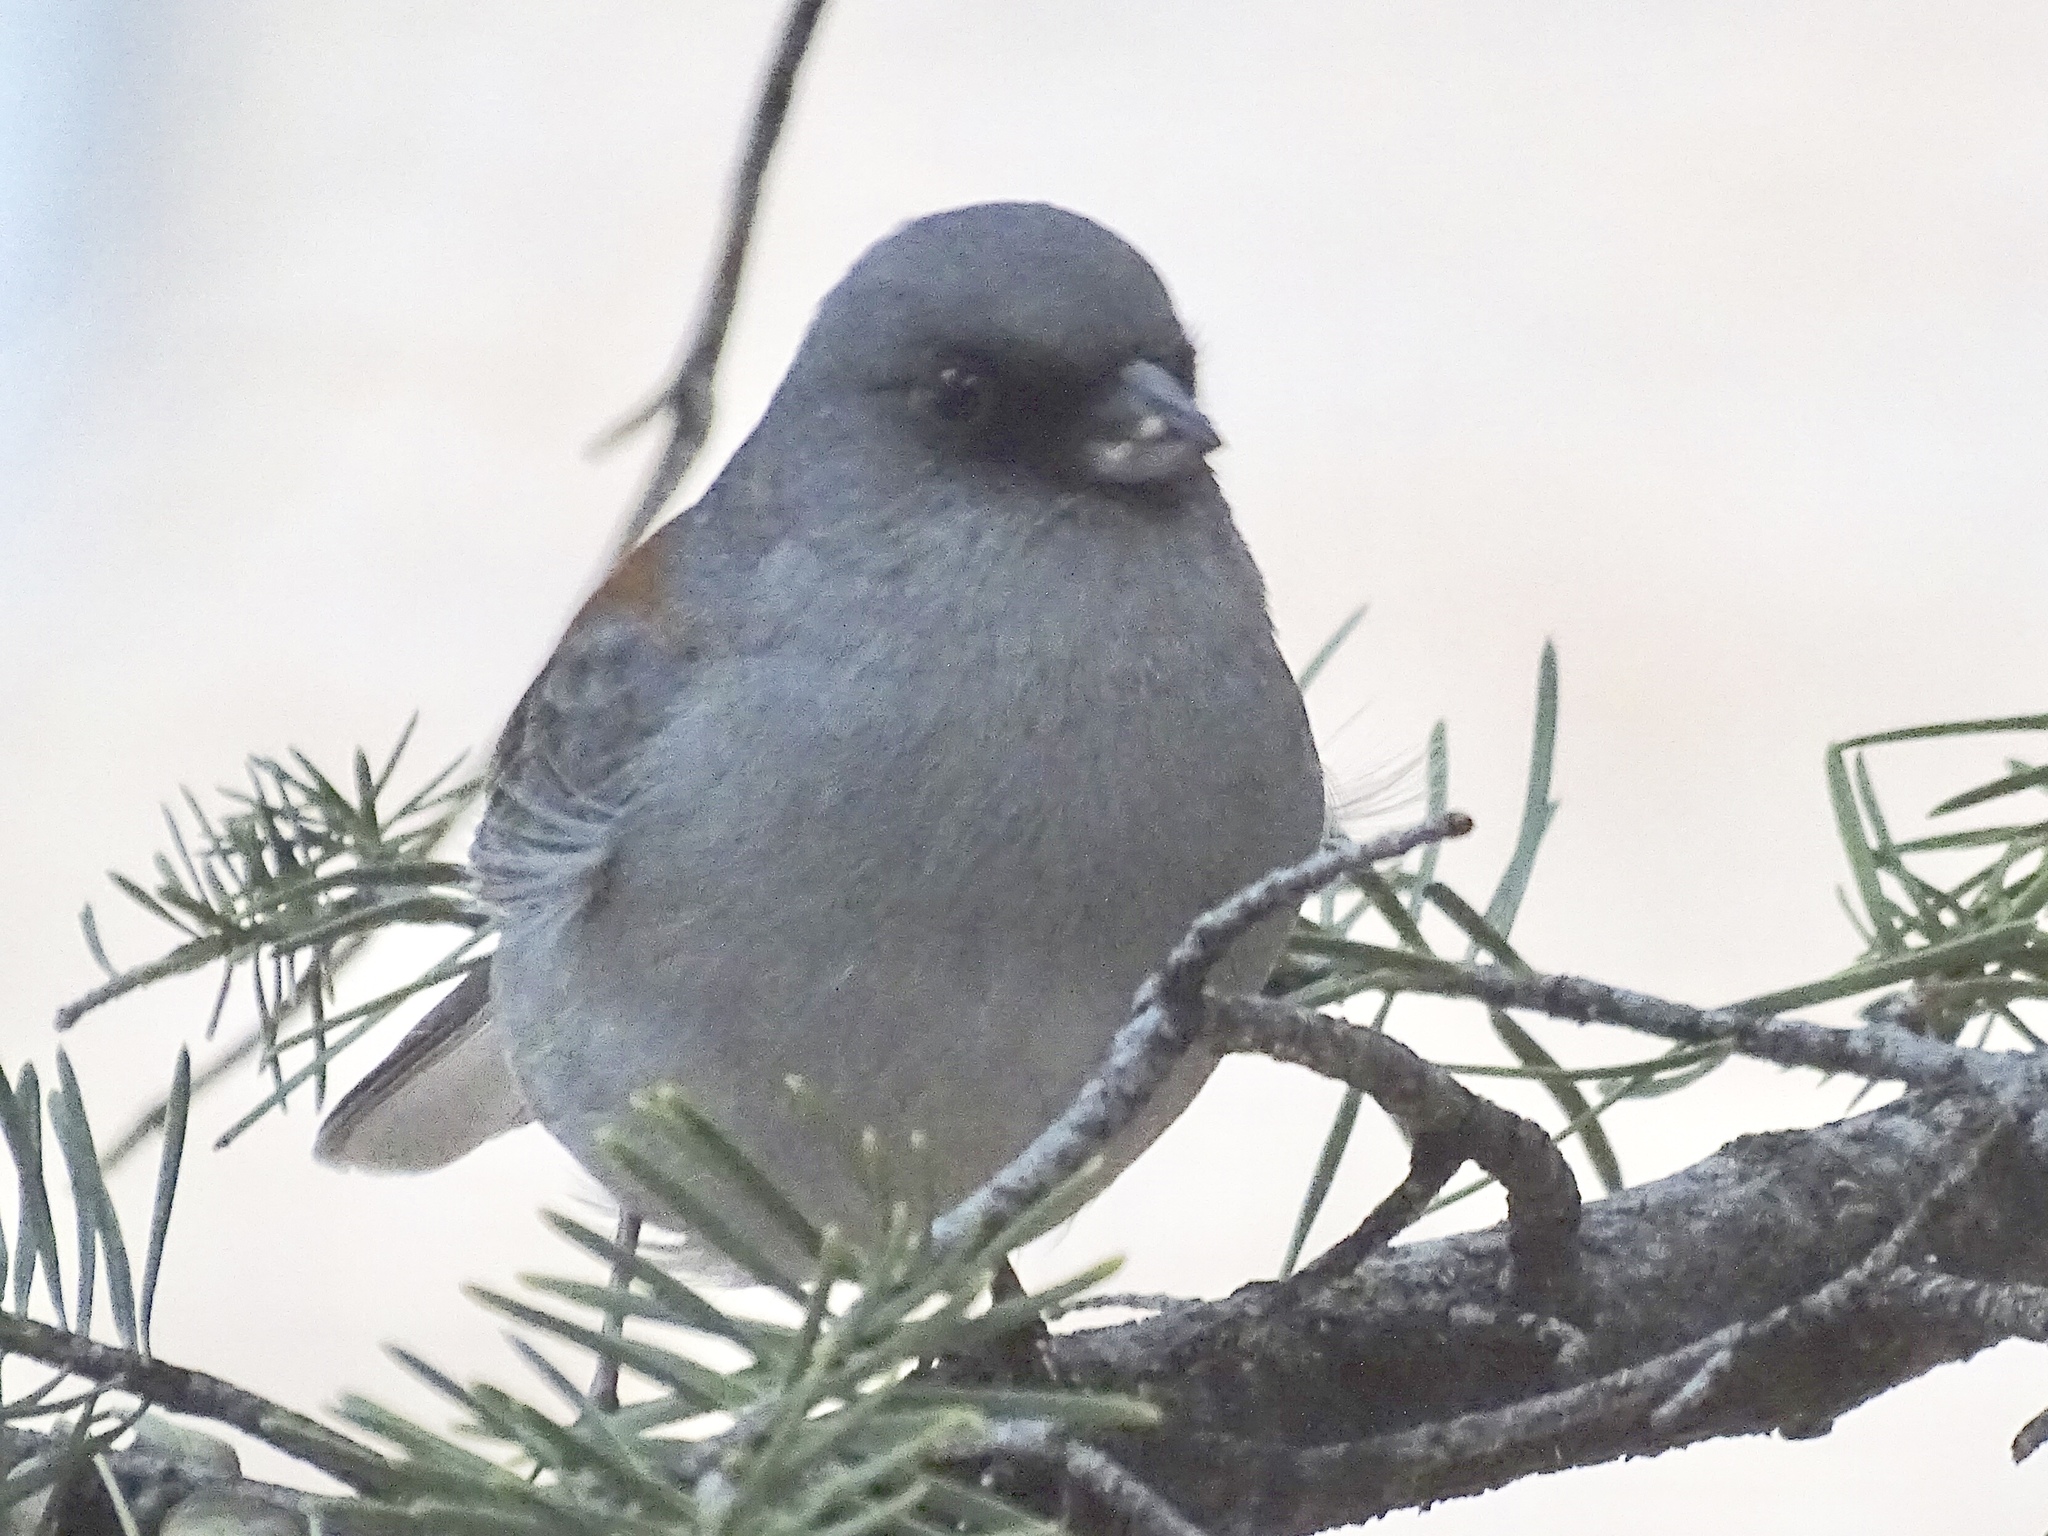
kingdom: Animalia
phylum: Chordata
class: Aves
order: Passeriformes
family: Passerellidae
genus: Junco
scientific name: Junco hyemalis
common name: Dark-eyed junco
